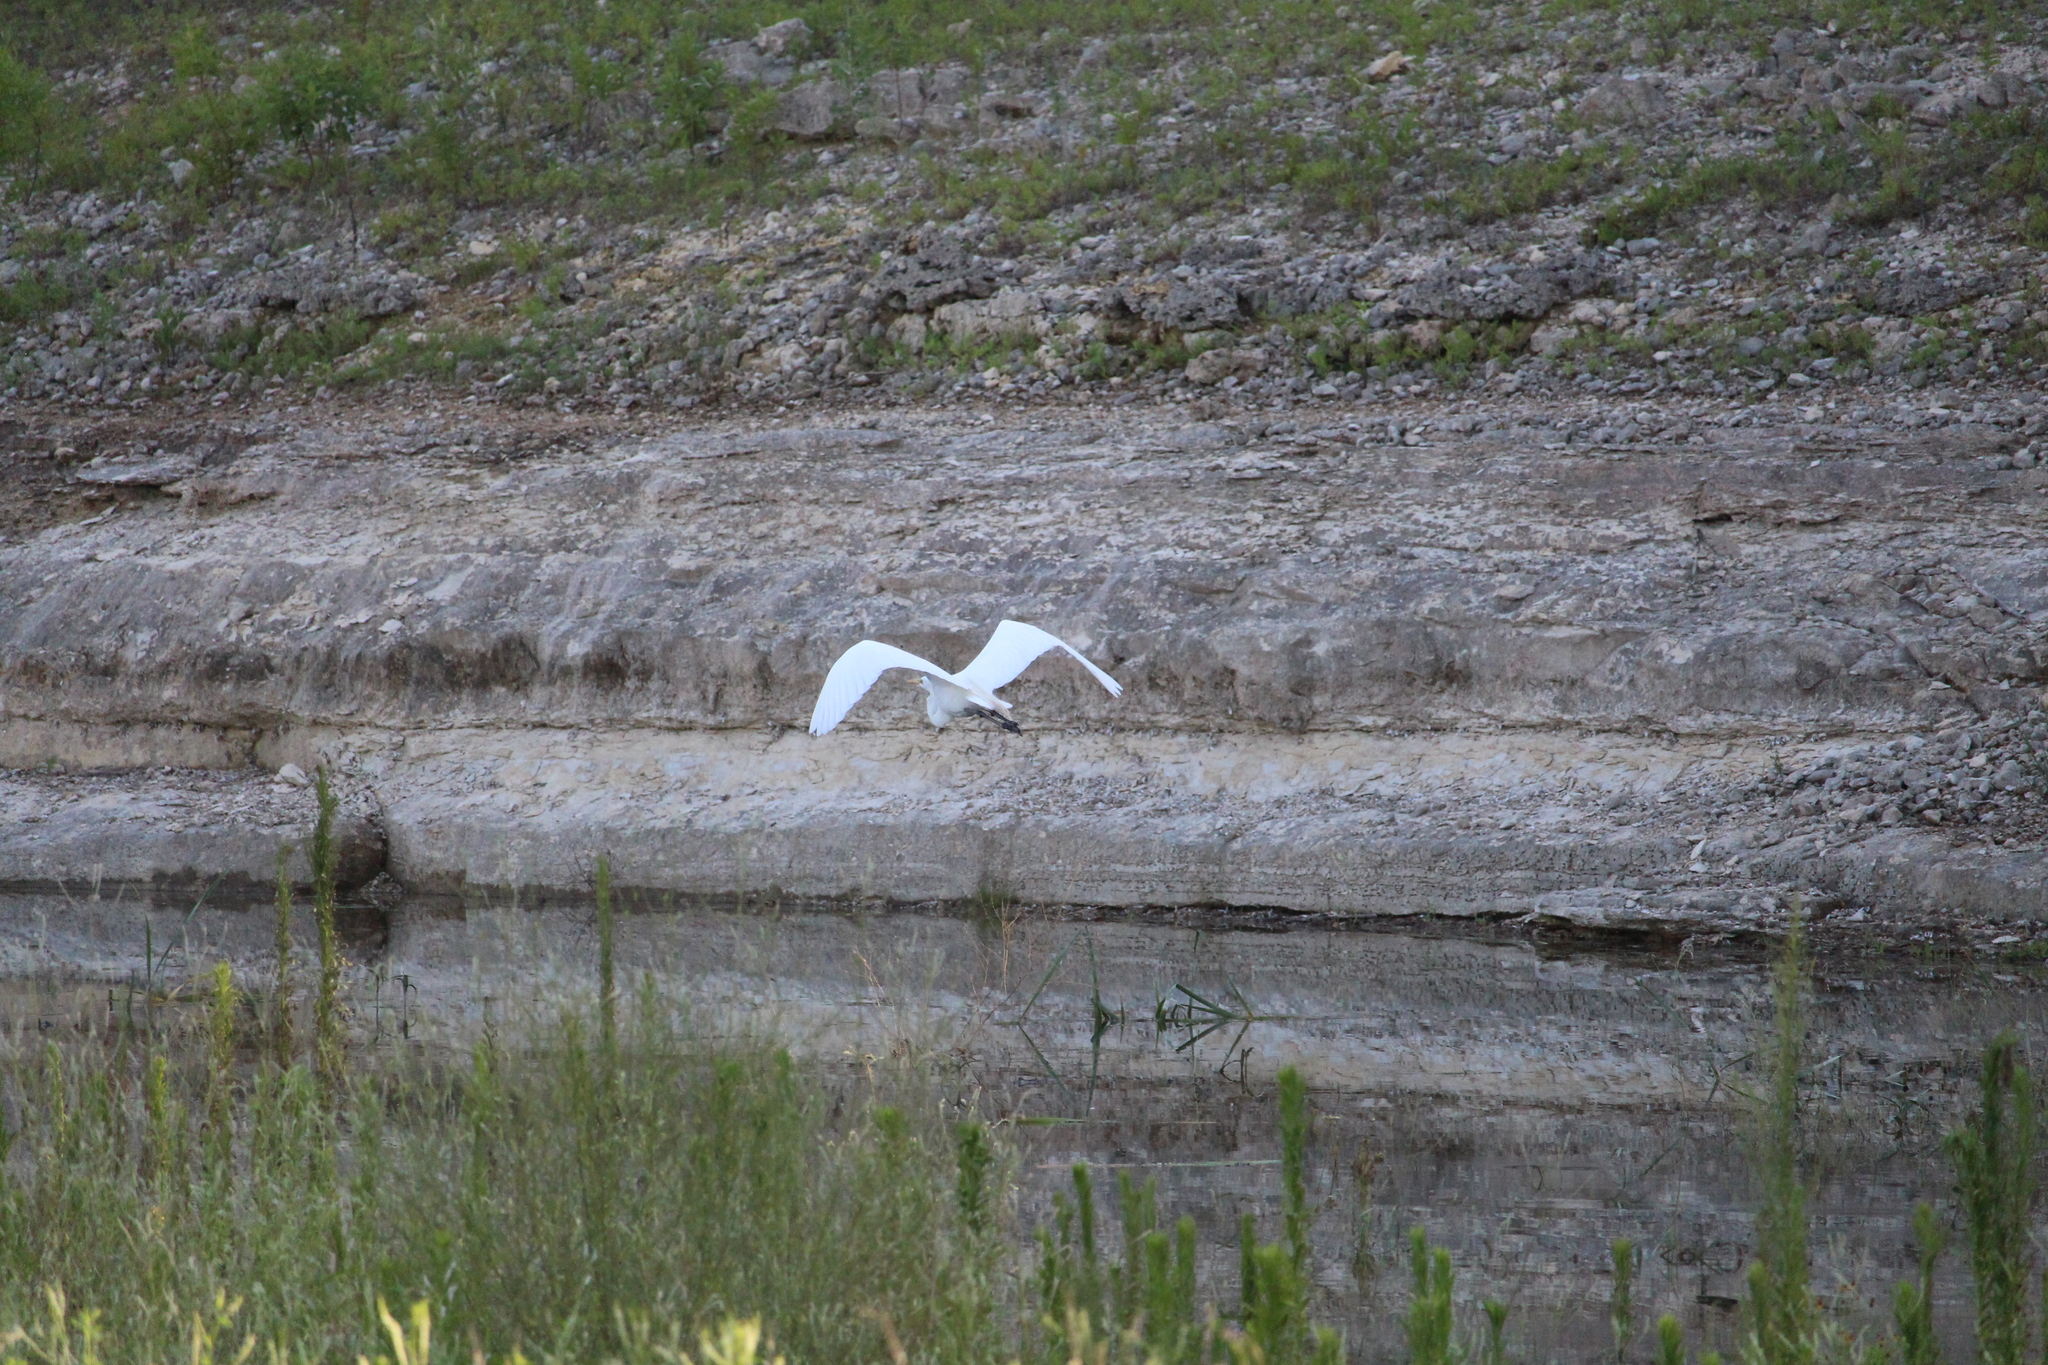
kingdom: Animalia
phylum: Chordata
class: Aves
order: Pelecaniformes
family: Ardeidae
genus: Ardea
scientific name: Ardea alba
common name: Great egret
